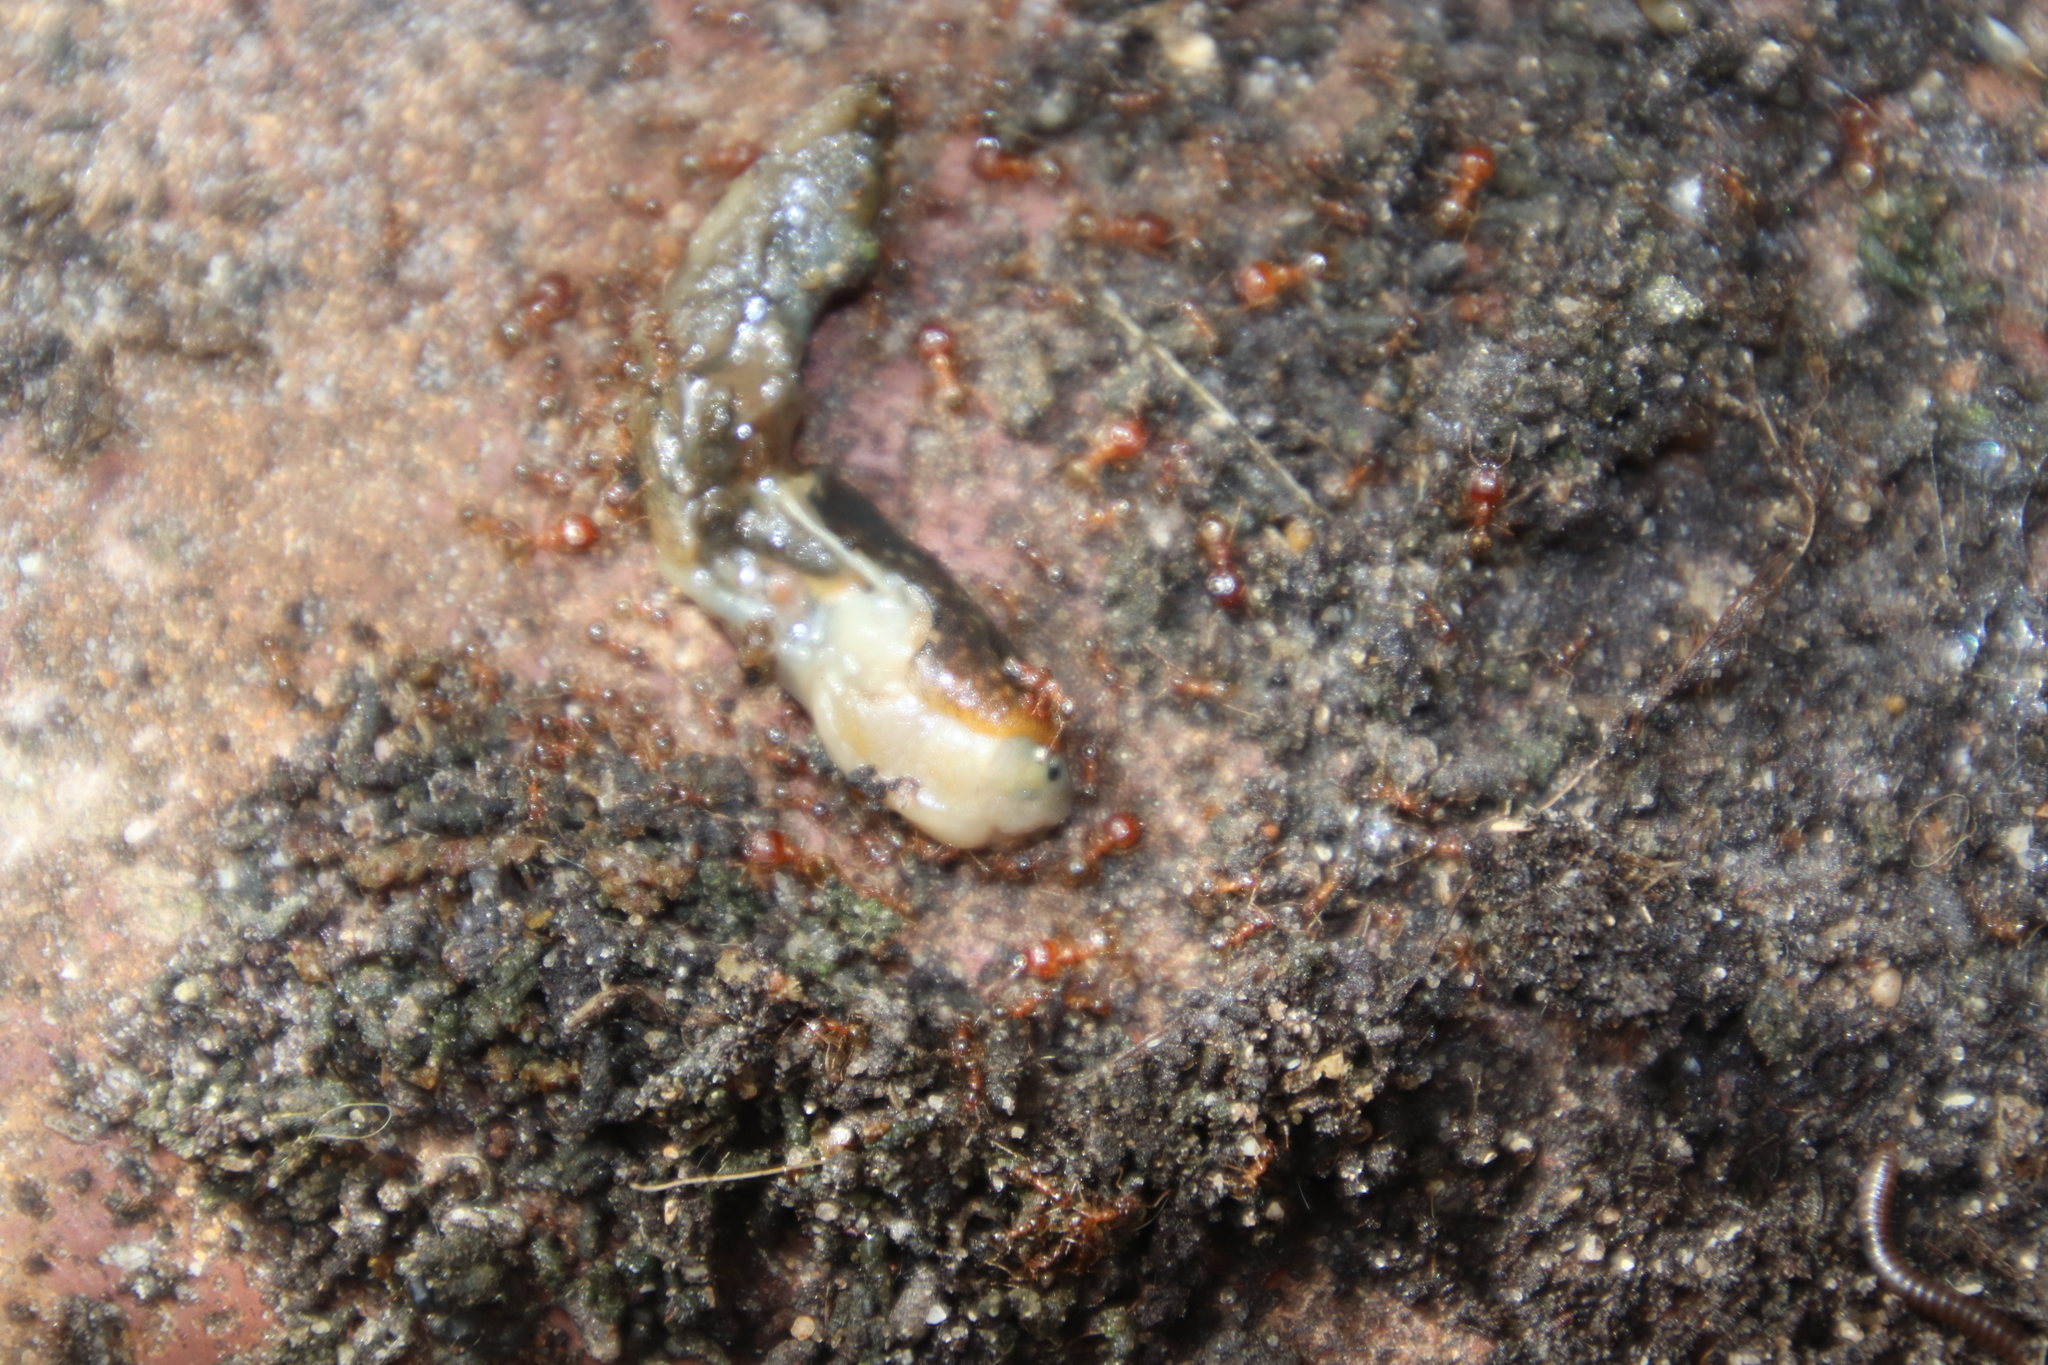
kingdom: Animalia
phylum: Arthropoda
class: Insecta
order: Hymenoptera
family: Formicidae
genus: Pheidole
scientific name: Pheidole megacephala
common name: Bigheaded ant
